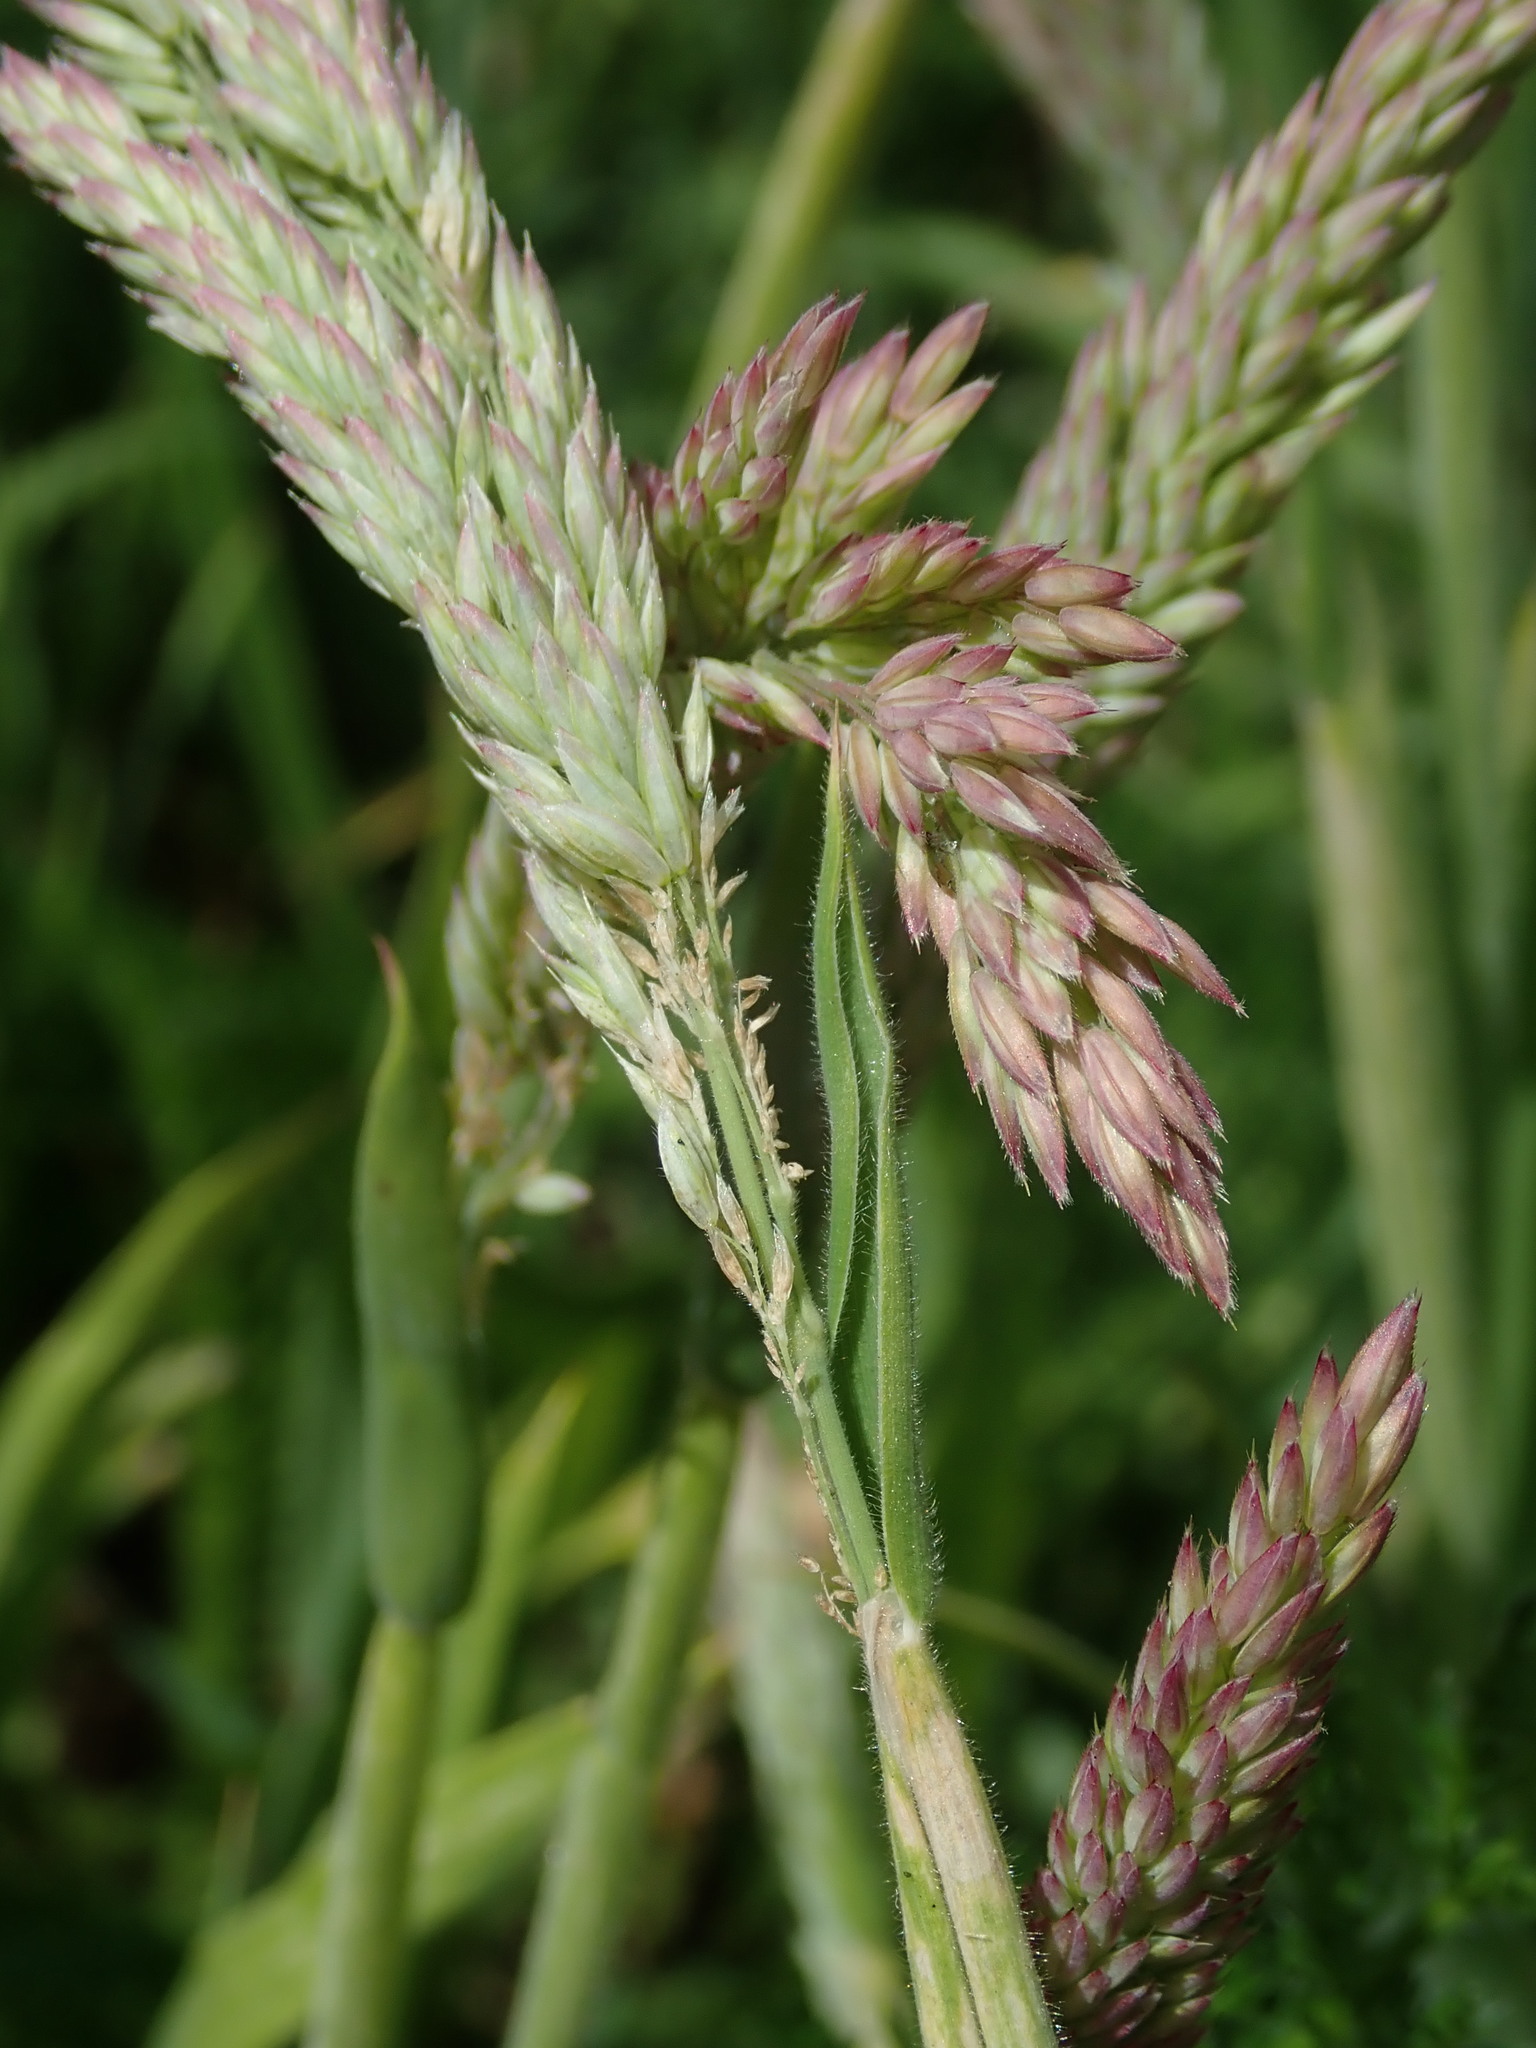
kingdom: Plantae
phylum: Tracheophyta
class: Liliopsida
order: Poales
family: Poaceae
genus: Holcus
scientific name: Holcus lanatus
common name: Yorkshire-fog
